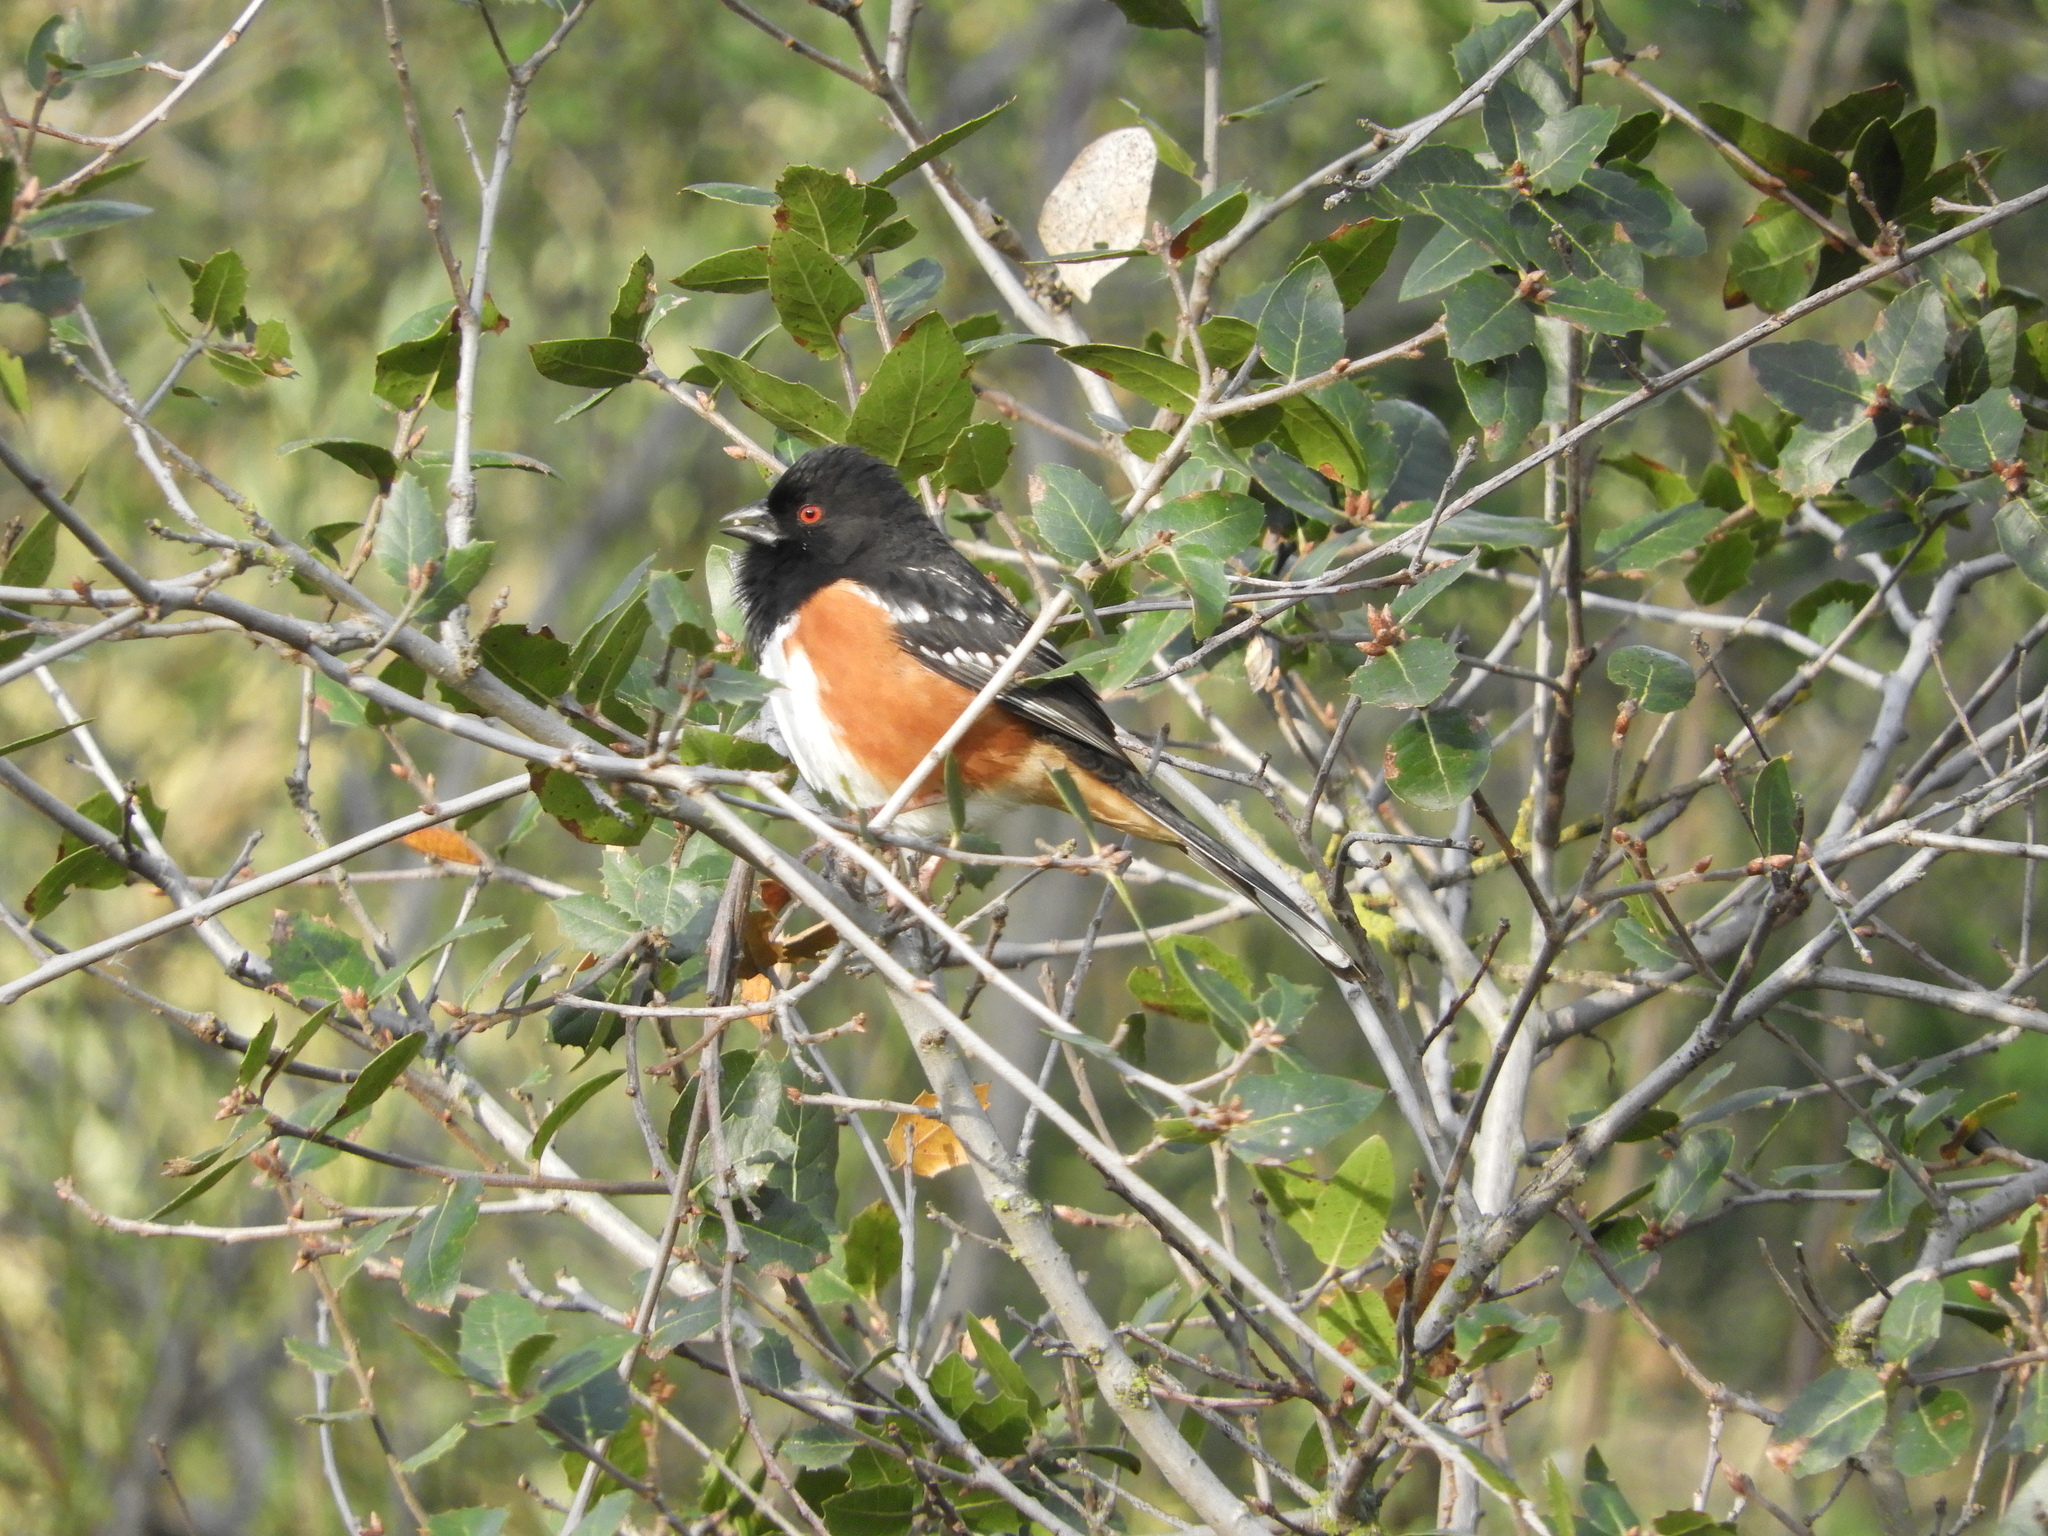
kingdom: Animalia
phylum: Chordata
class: Aves
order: Passeriformes
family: Passerellidae
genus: Pipilo
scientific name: Pipilo maculatus
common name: Spotted towhee
